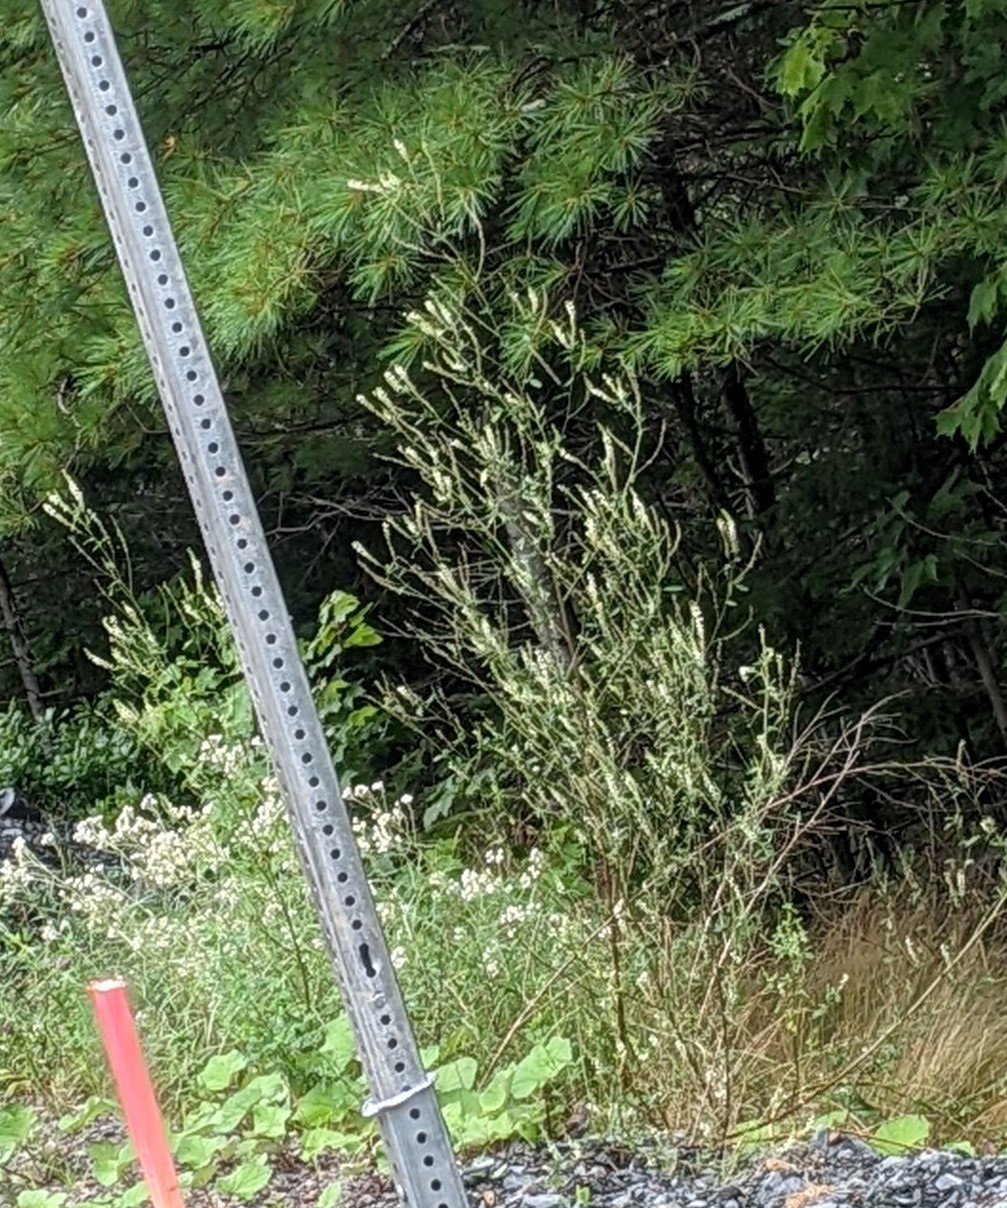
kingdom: Plantae
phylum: Tracheophyta
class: Magnoliopsida
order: Fabales
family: Fabaceae
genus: Melilotus
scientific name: Melilotus albus
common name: White melilot
